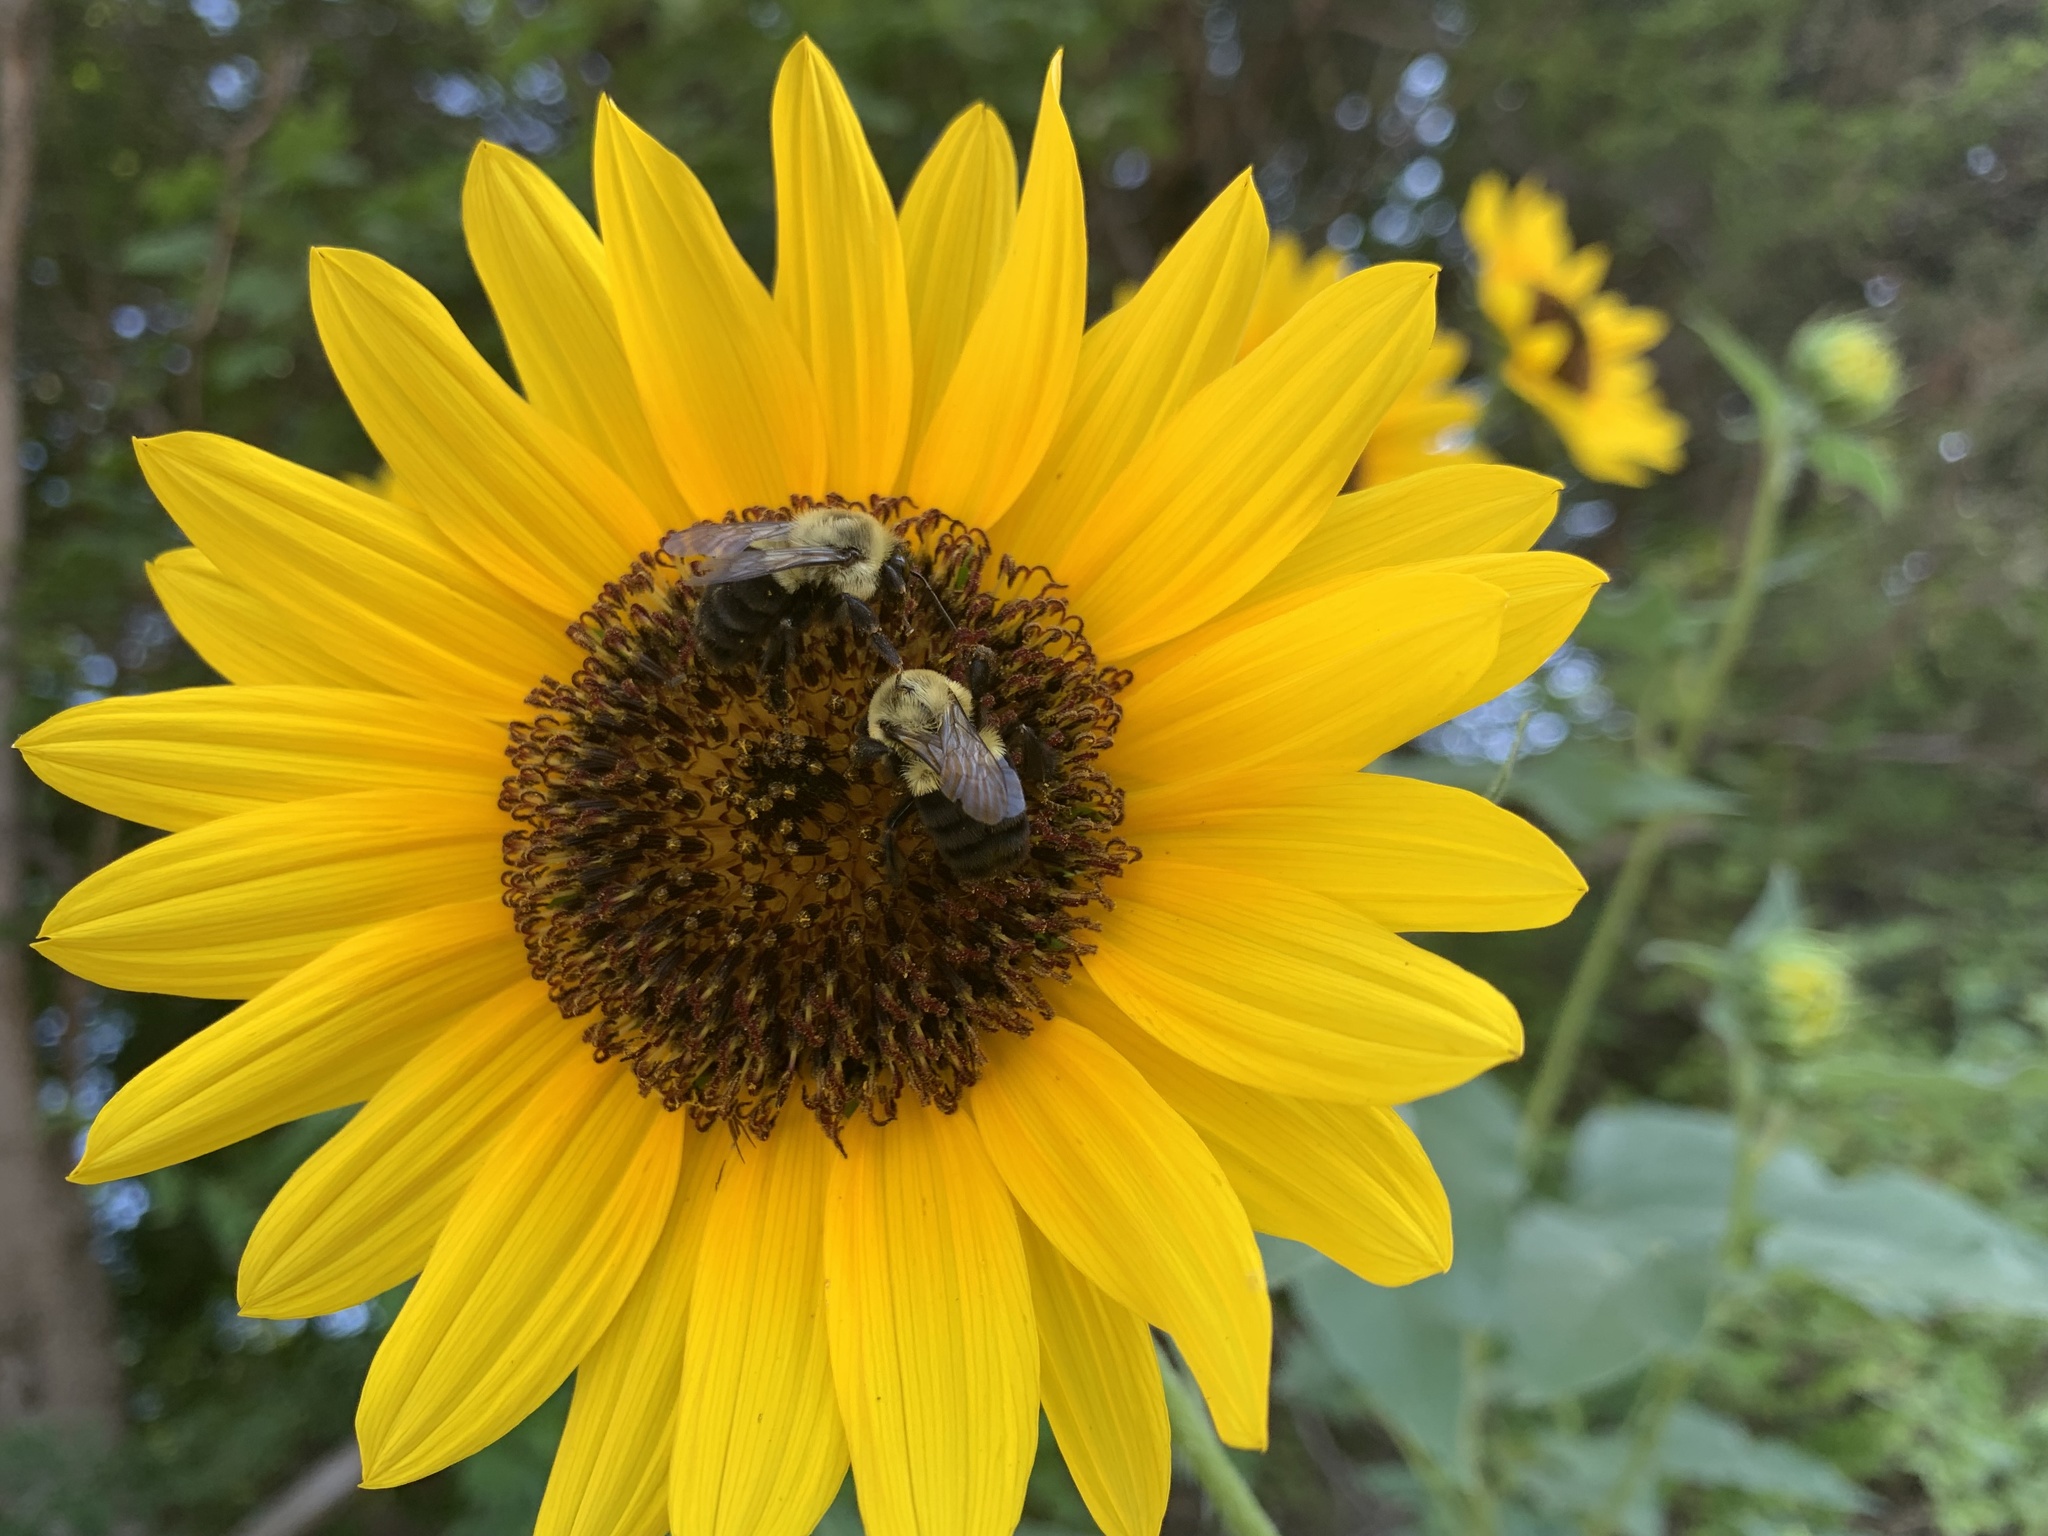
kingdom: Animalia
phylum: Arthropoda
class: Insecta
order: Hymenoptera
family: Apidae
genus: Bombus
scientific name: Bombus impatiens
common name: Common eastern bumble bee
